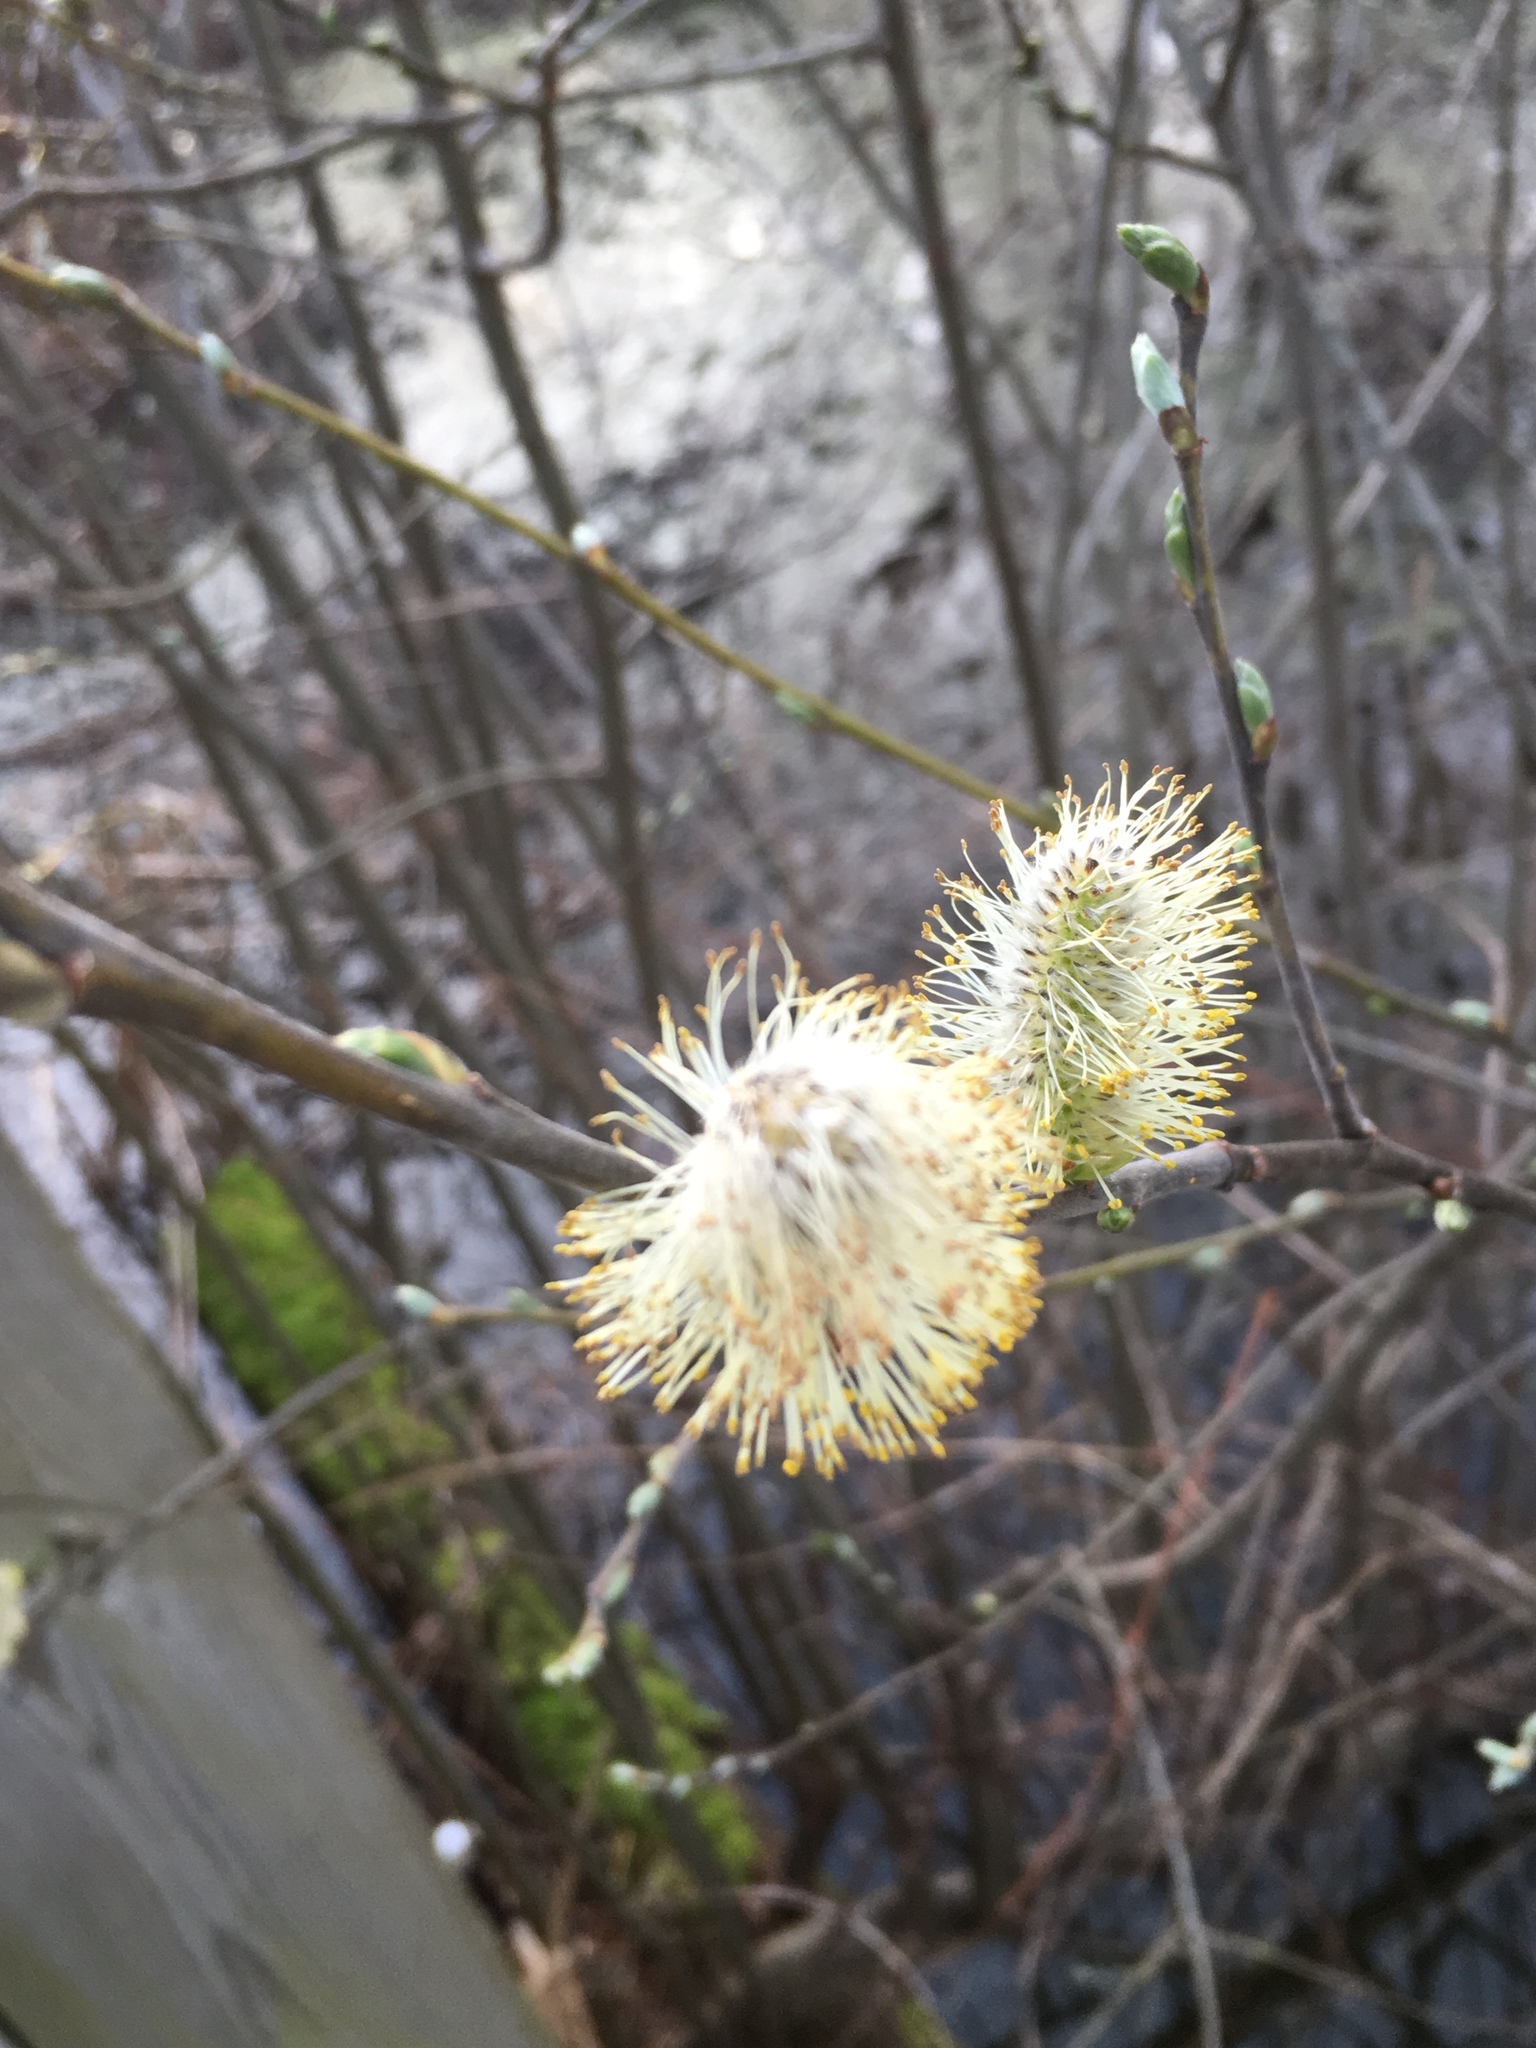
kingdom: Plantae
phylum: Tracheophyta
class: Magnoliopsida
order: Malpighiales
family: Salicaceae
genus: Salix
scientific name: Salix discolor
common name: Glaucous willow
